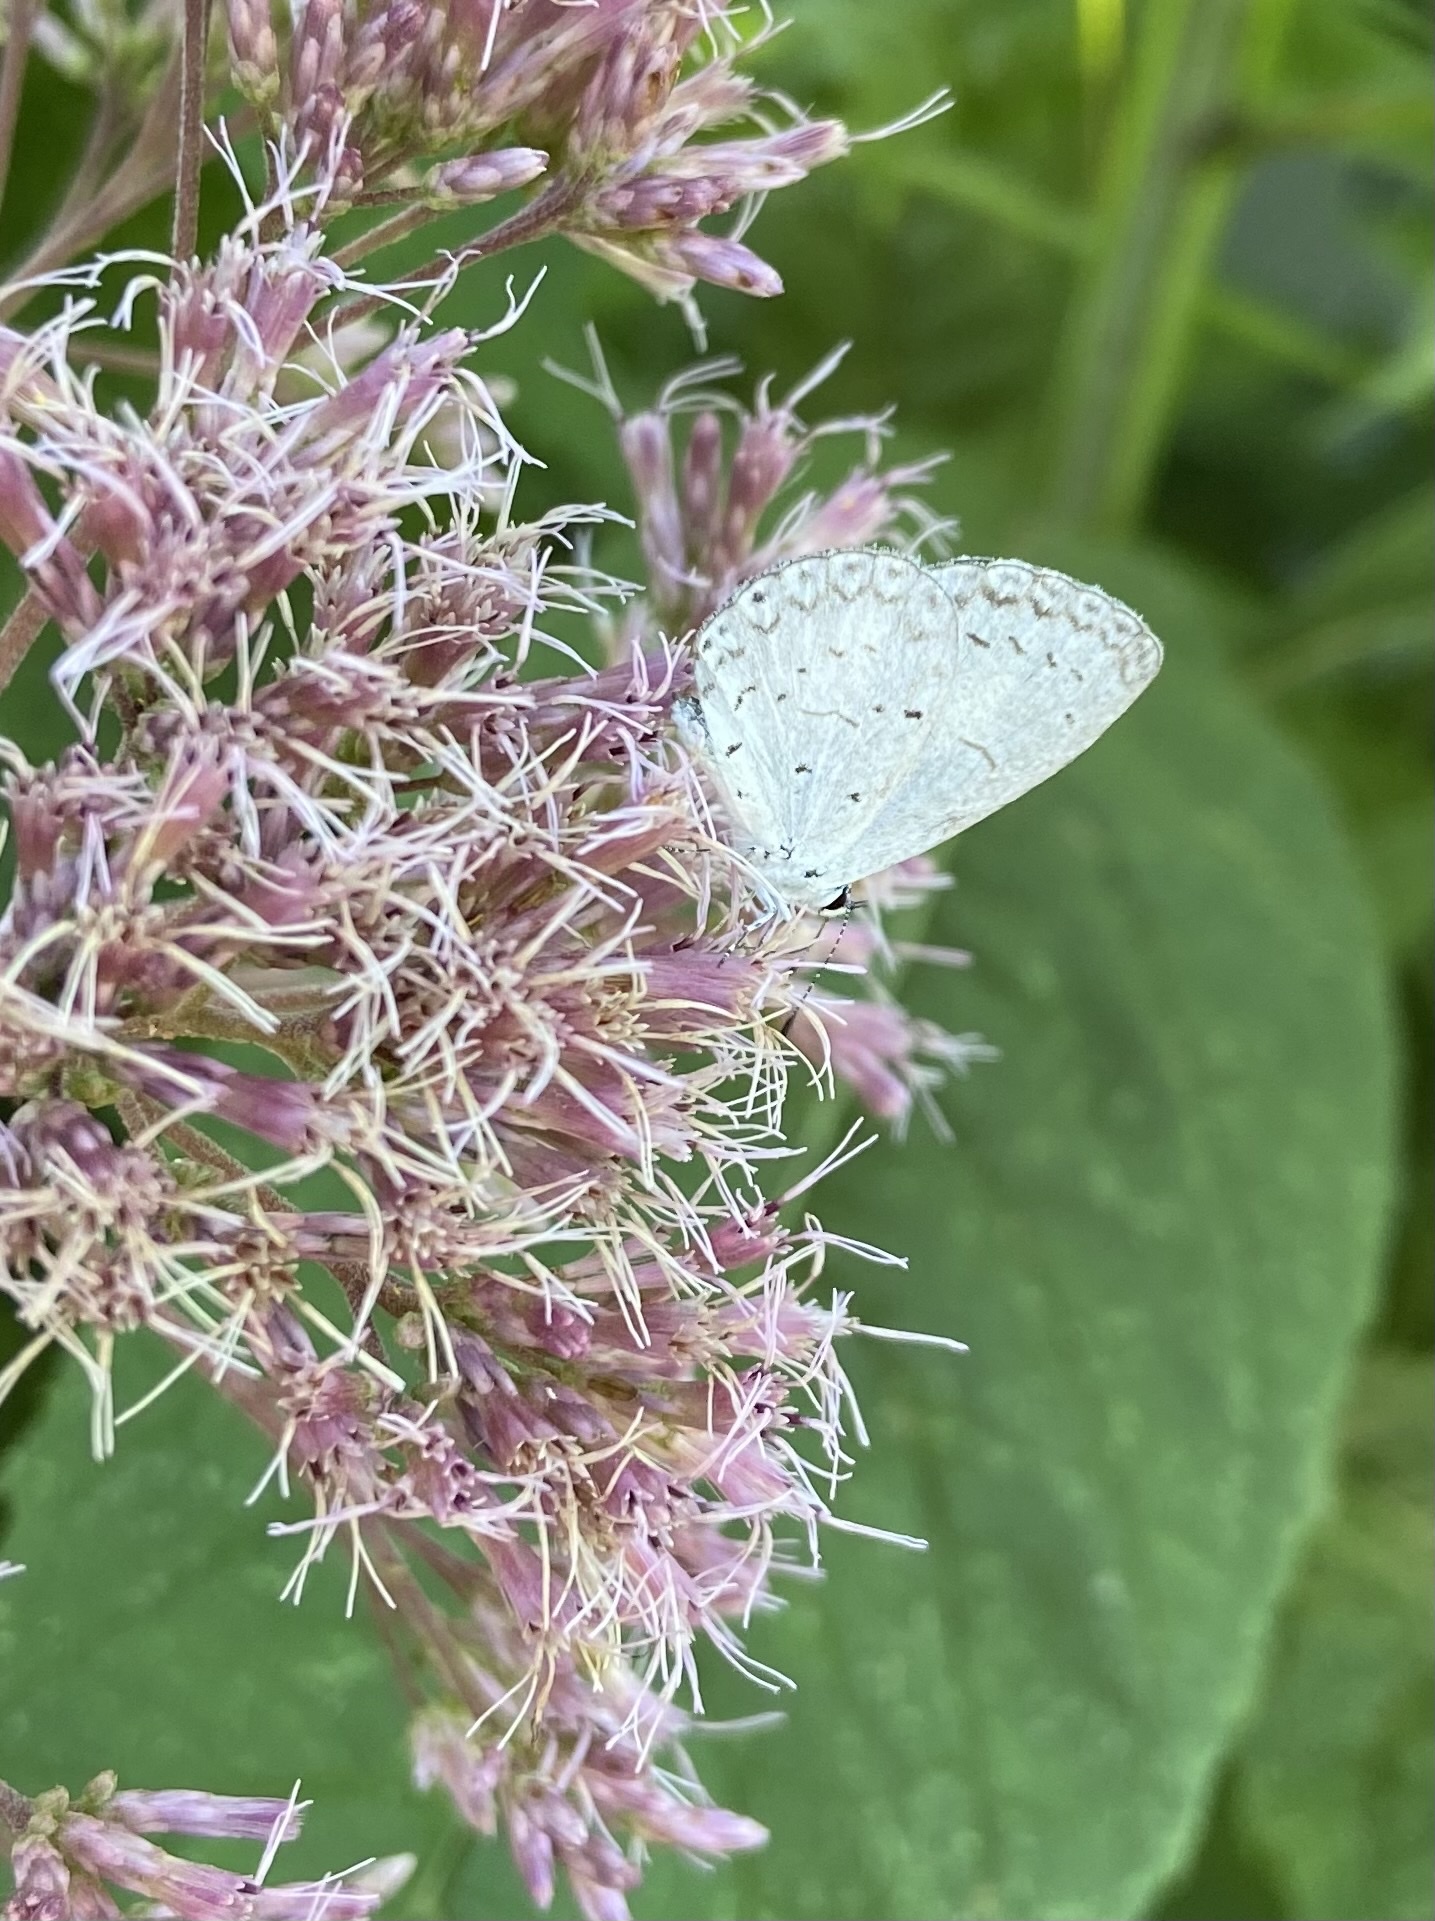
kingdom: Animalia
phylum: Arthropoda
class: Insecta
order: Lepidoptera
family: Lycaenidae
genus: Cyaniris
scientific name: Cyaniris neglecta
